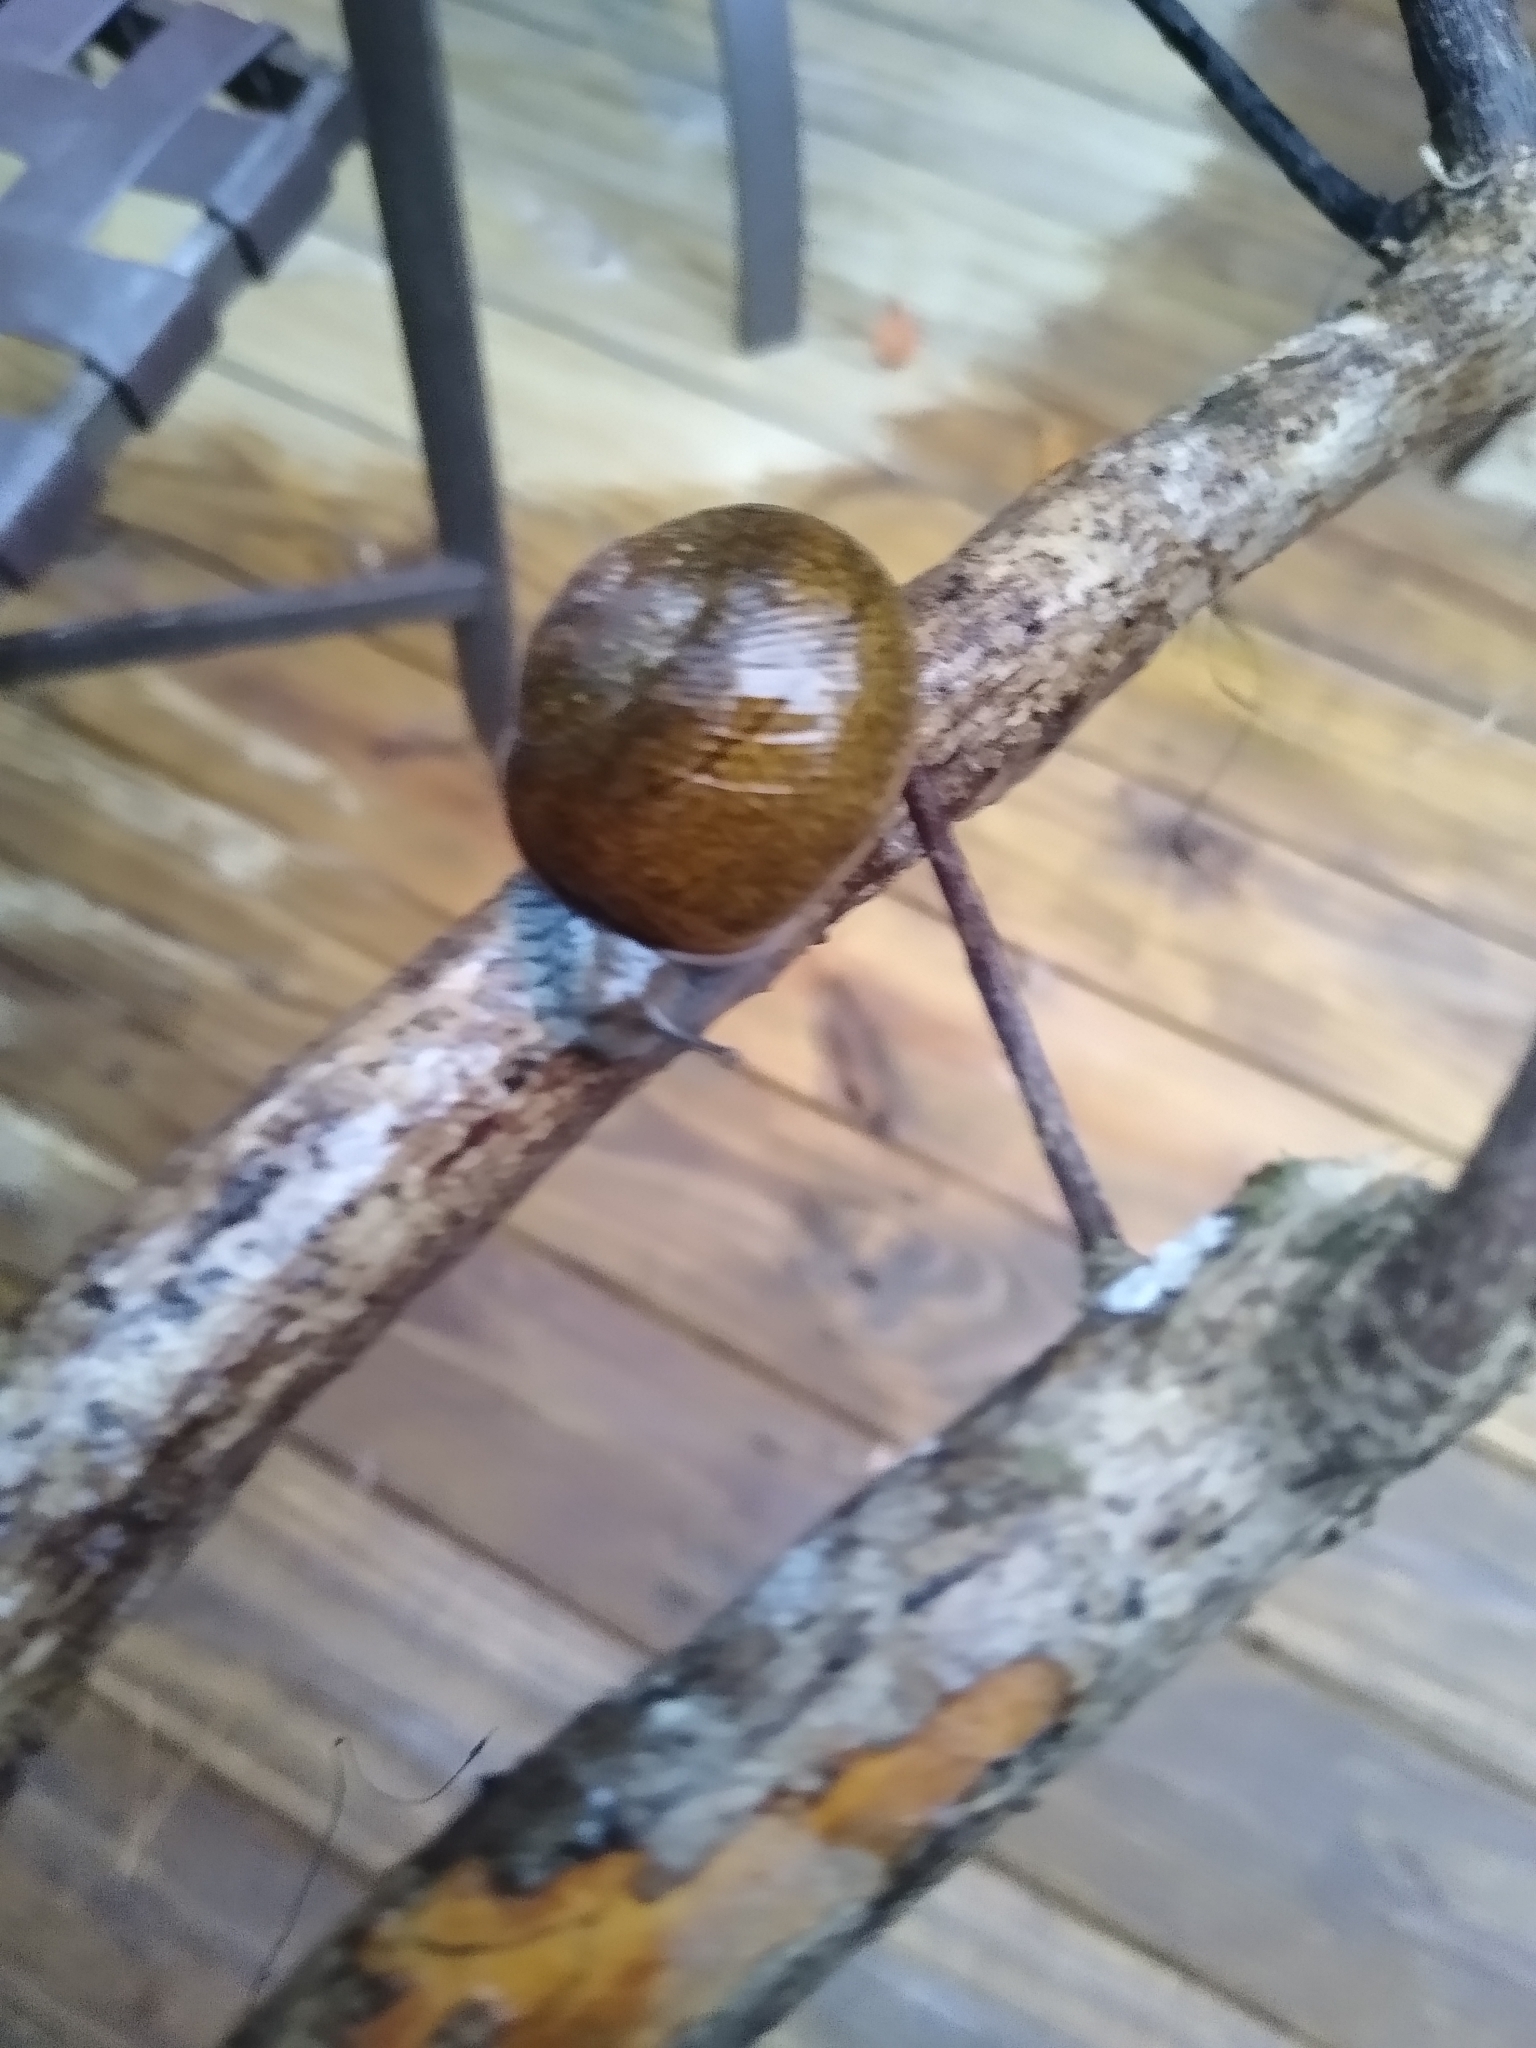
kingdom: Animalia
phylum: Mollusca
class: Gastropoda
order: Stylommatophora
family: Zachrysiidae
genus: Zachrysia
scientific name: Zachrysia provisoria
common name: Garden zachrysia
